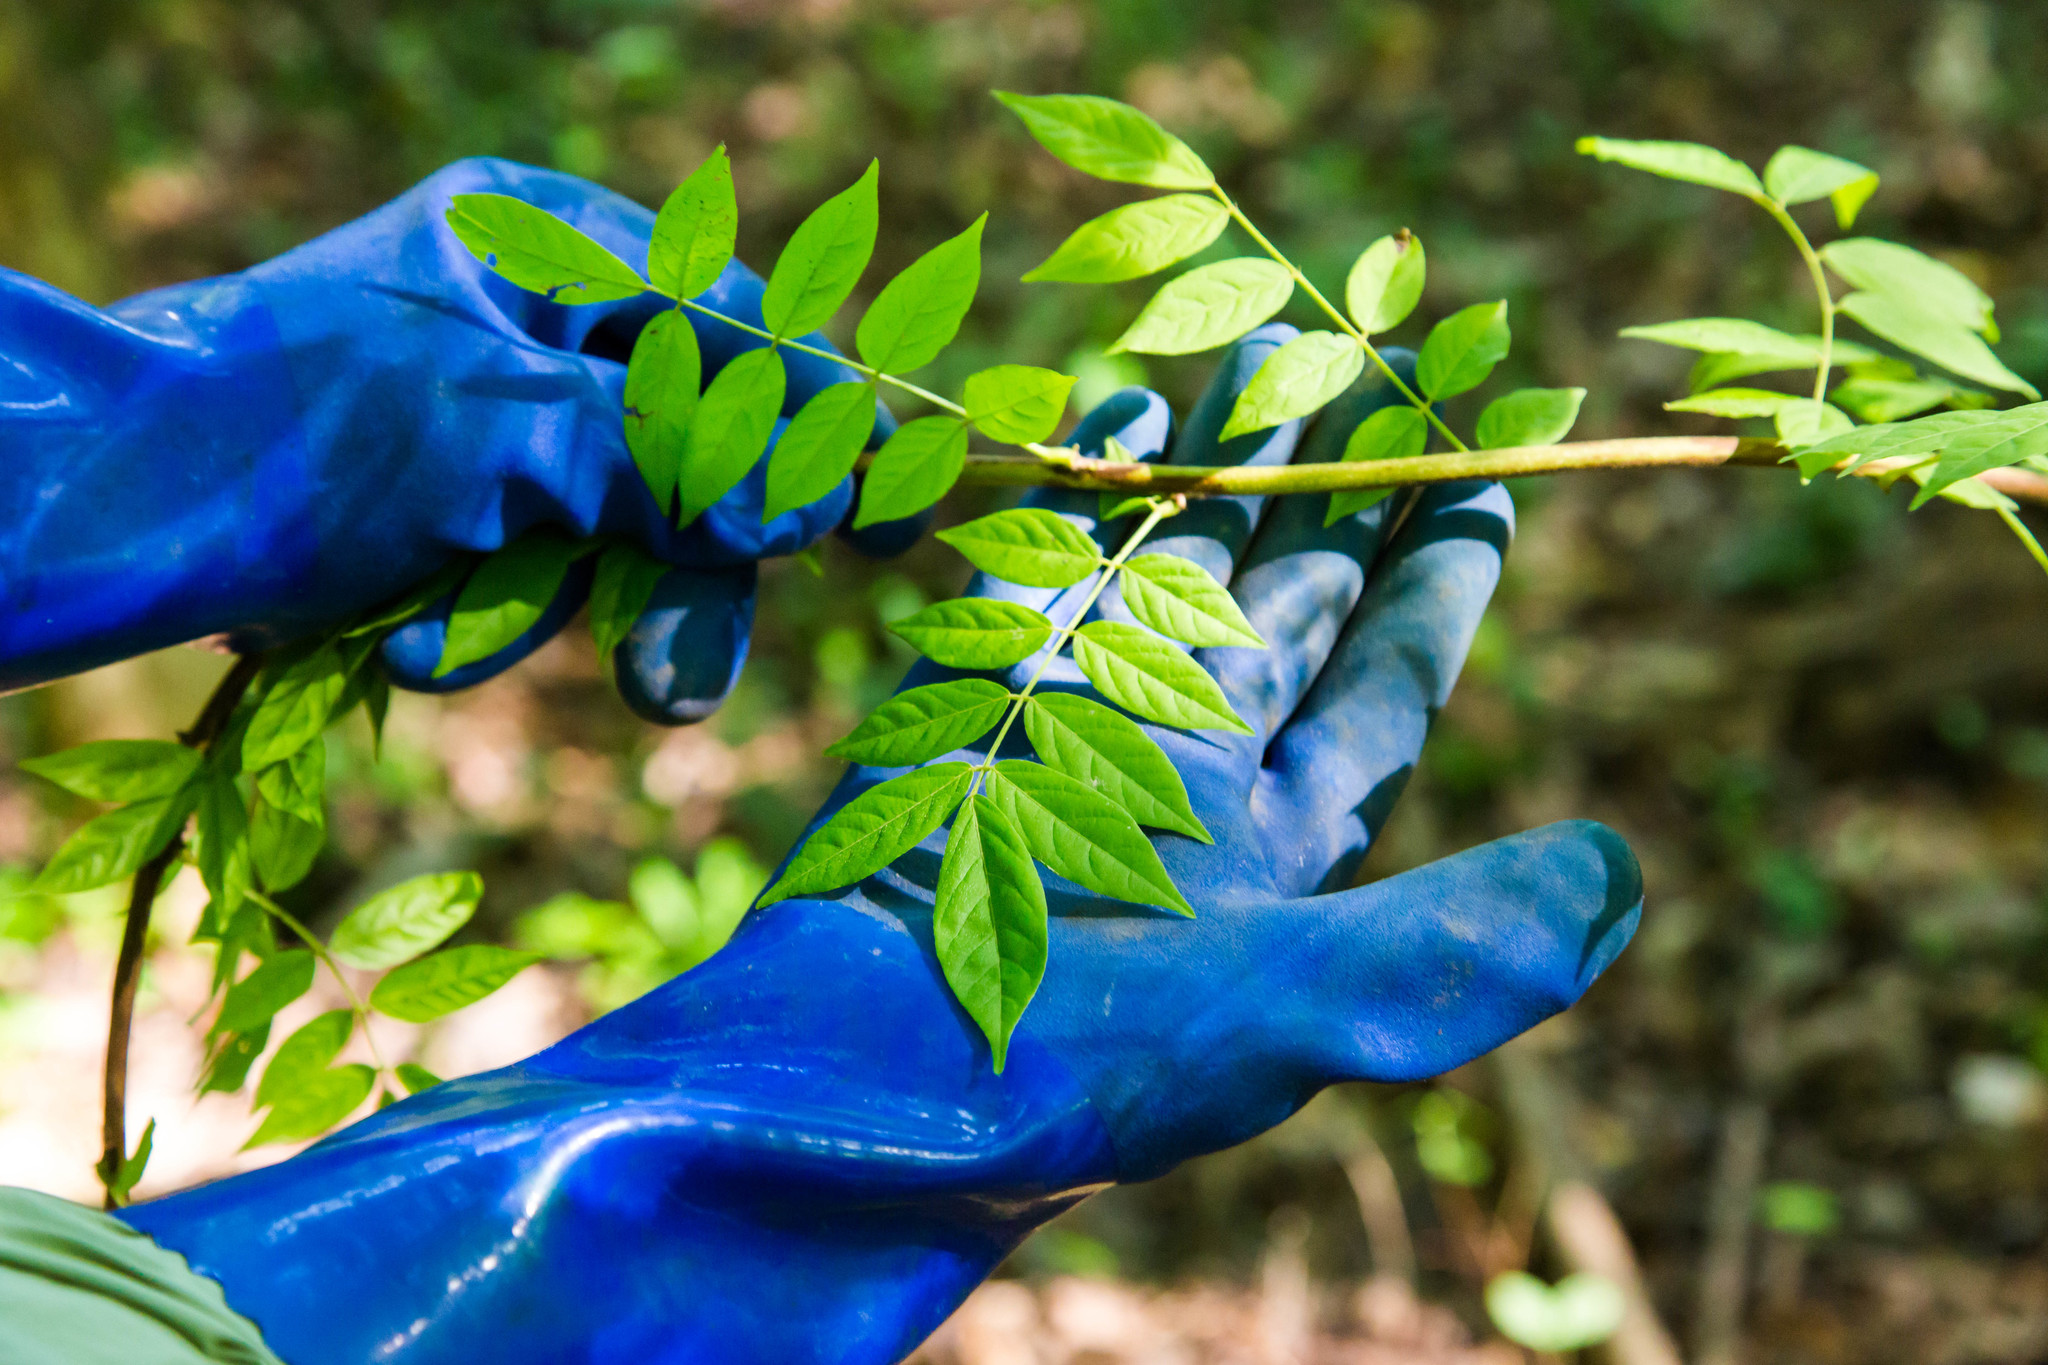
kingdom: Plantae
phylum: Tracheophyta
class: Magnoliopsida
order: Fabales
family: Fabaceae
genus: Wisteria
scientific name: Wisteria sinensis
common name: Chinese wisteria
